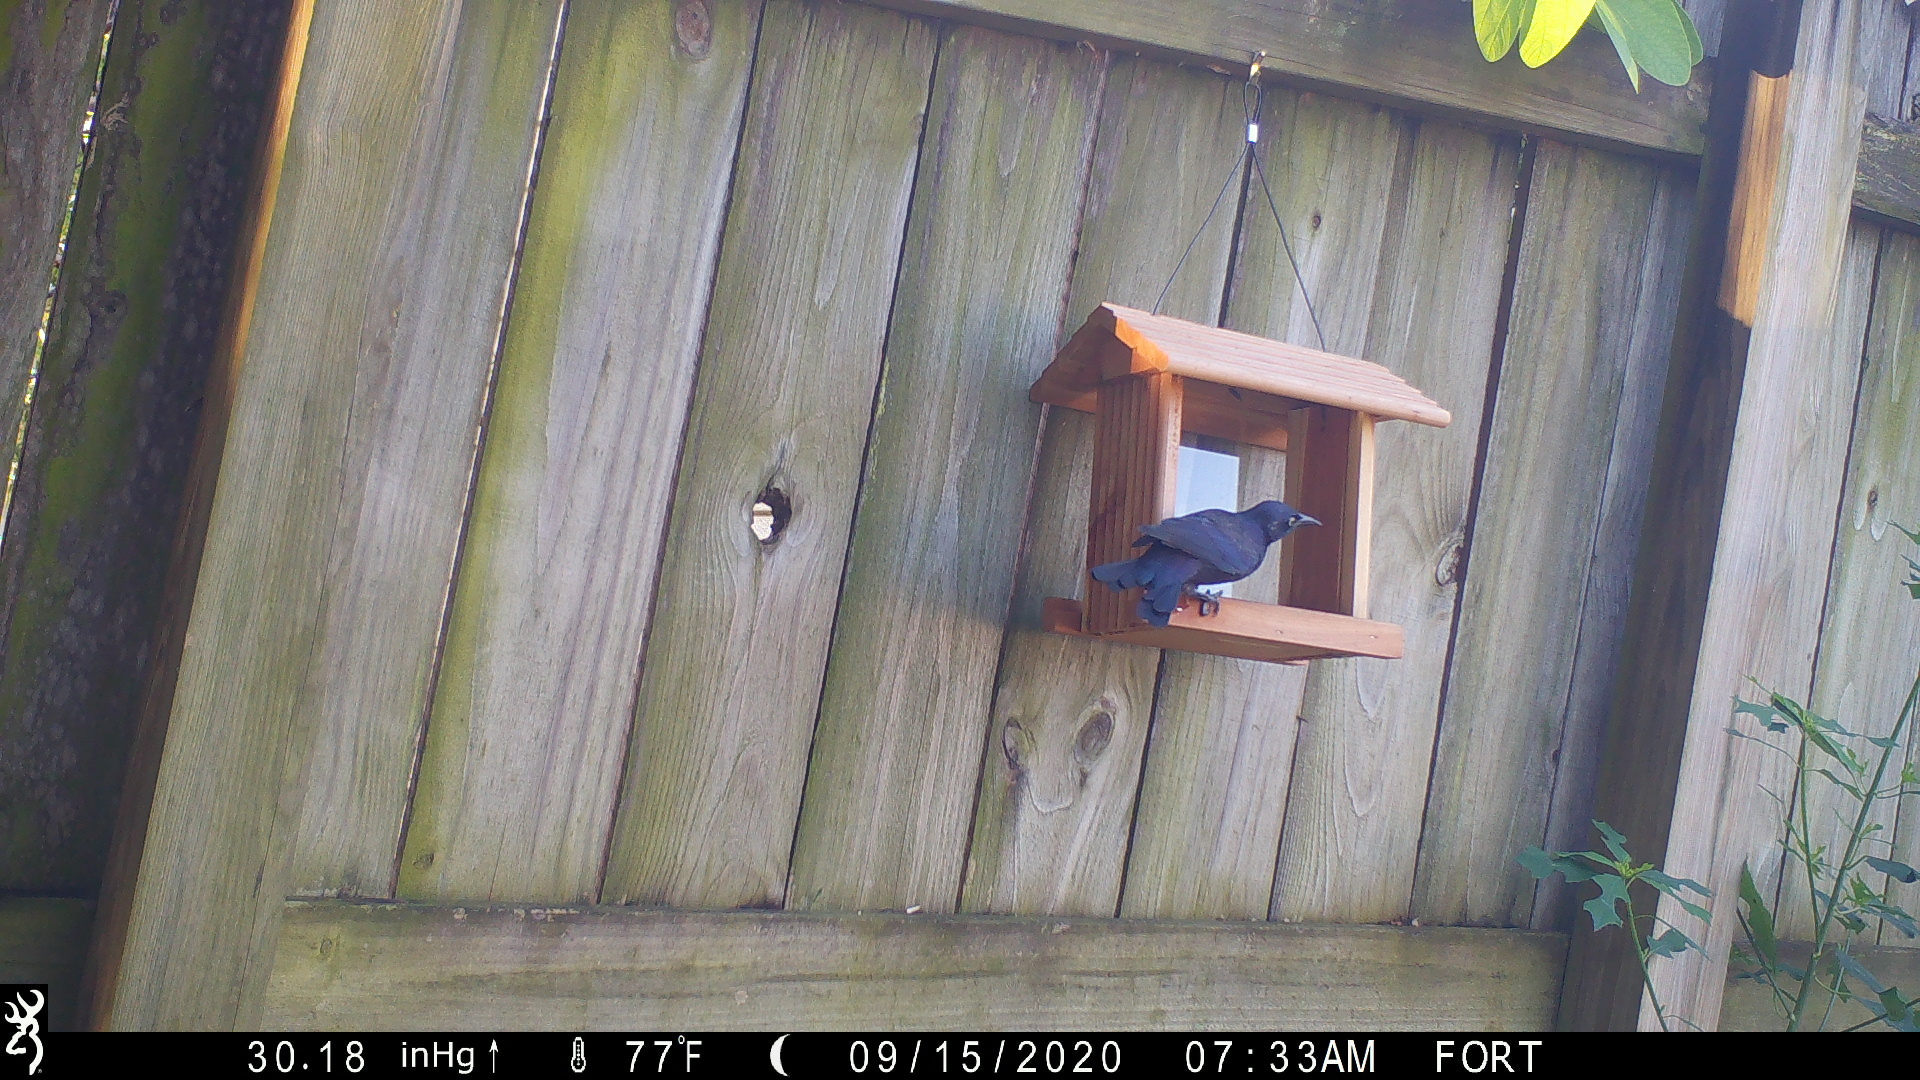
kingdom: Animalia
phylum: Chordata
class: Aves
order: Passeriformes
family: Icteridae
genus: Quiscalus
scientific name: Quiscalus quiscula
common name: Common grackle
